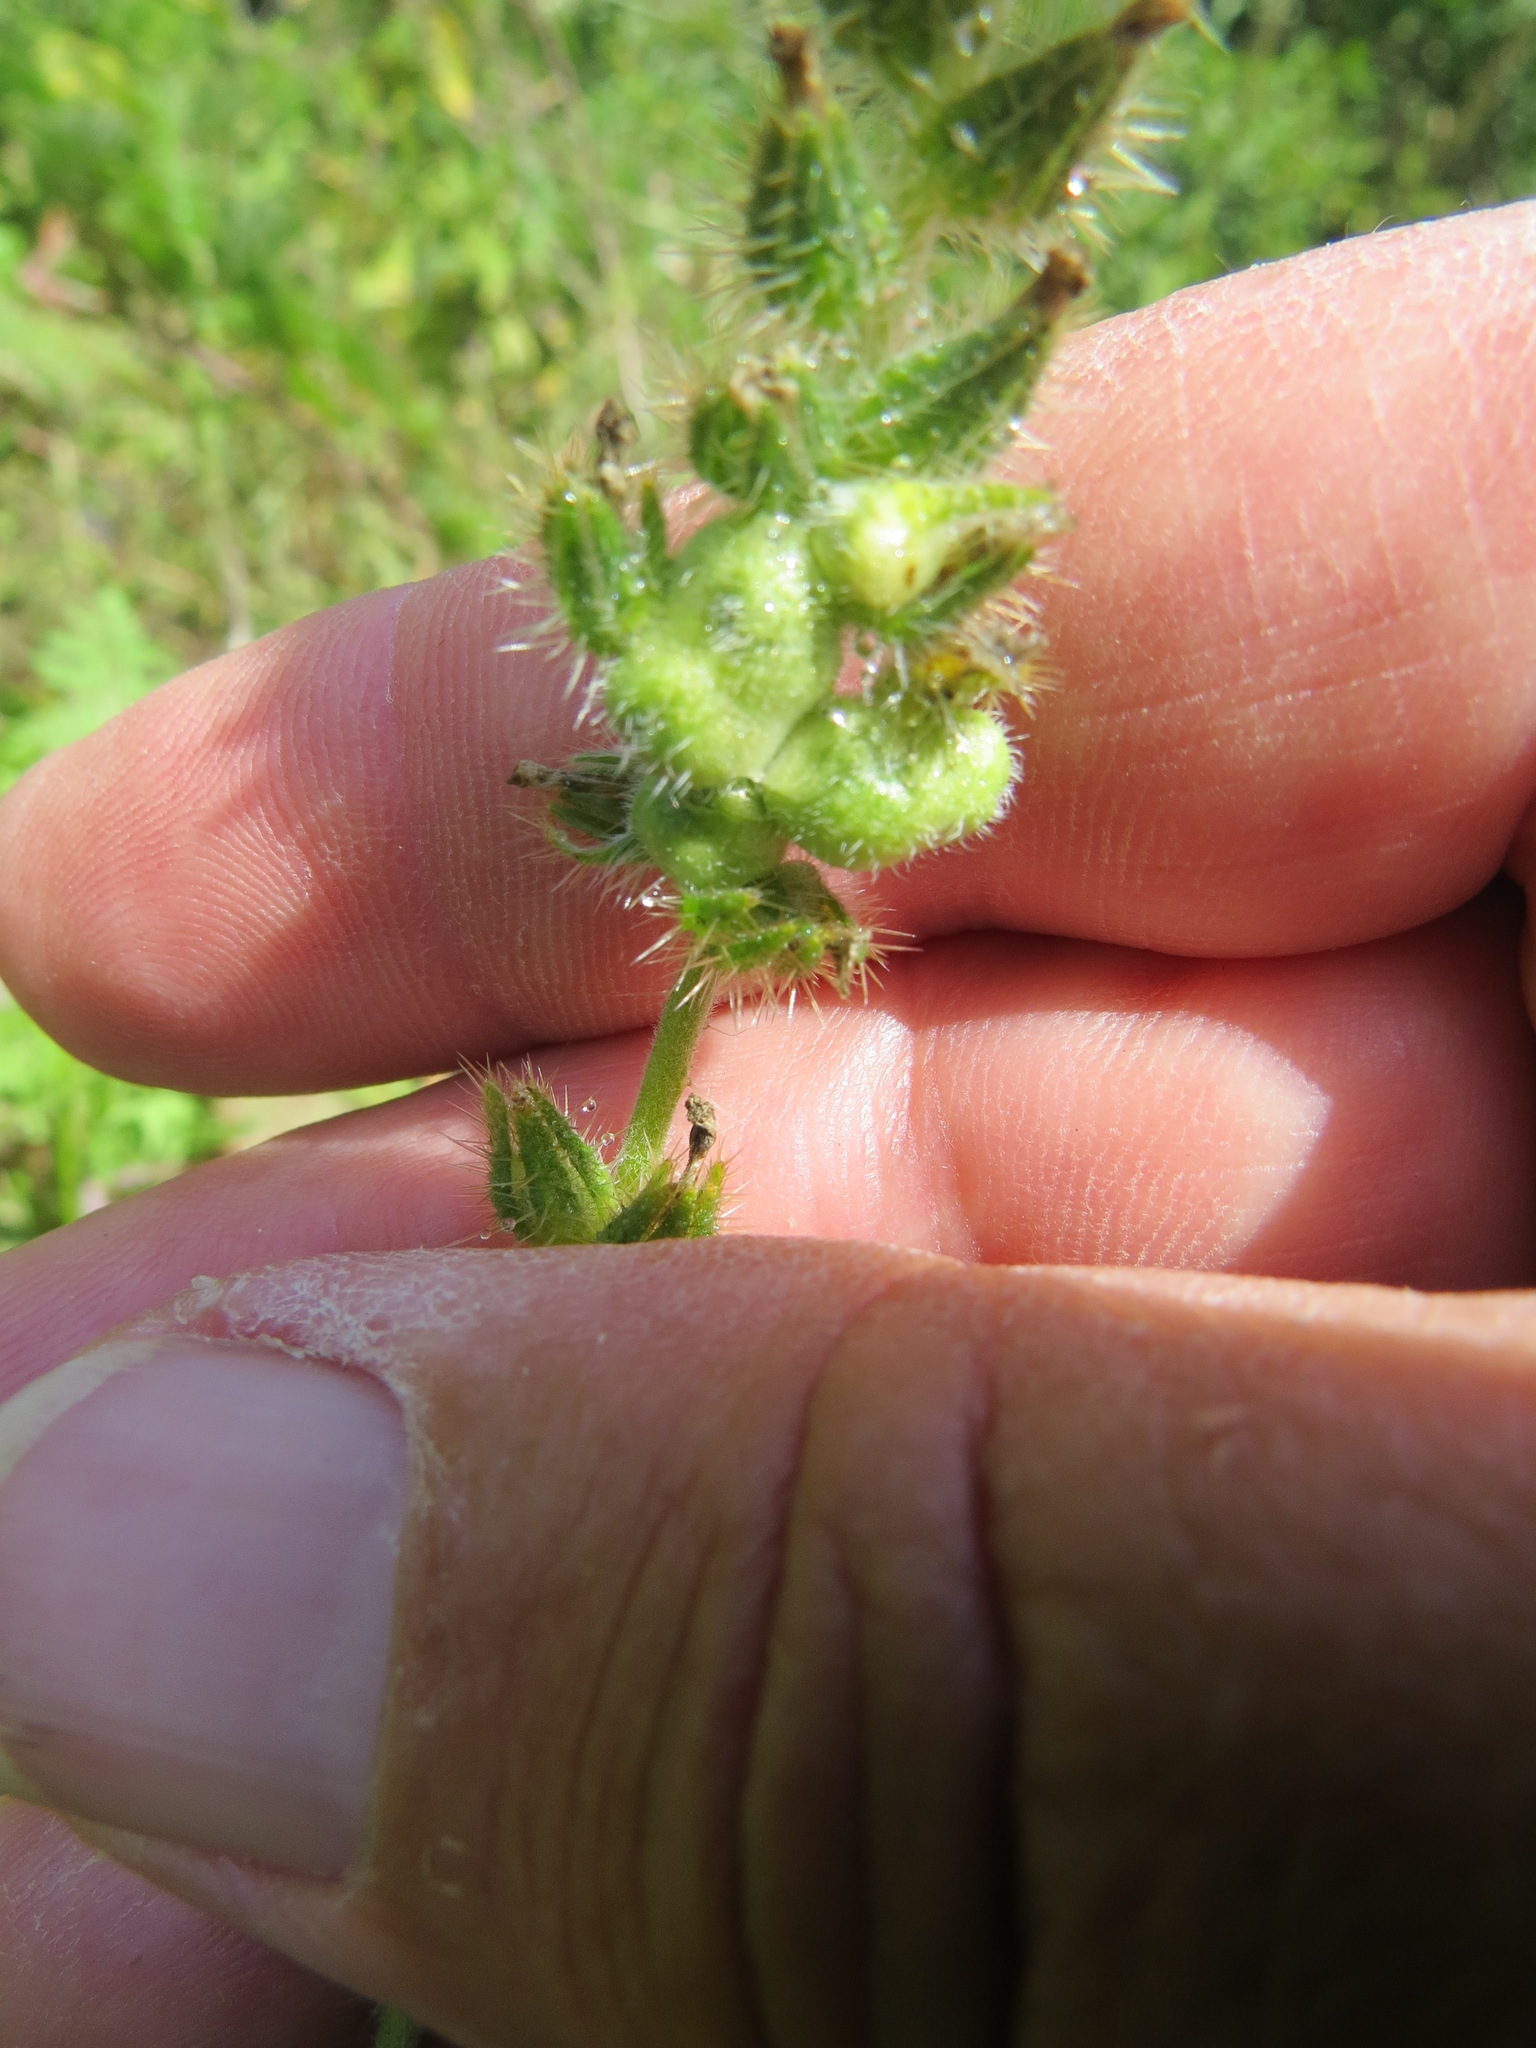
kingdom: Animalia
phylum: Arthropoda
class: Insecta
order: Diptera
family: Cecidomyiidae
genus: Schizomyia
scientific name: Schizomyia macrofila
